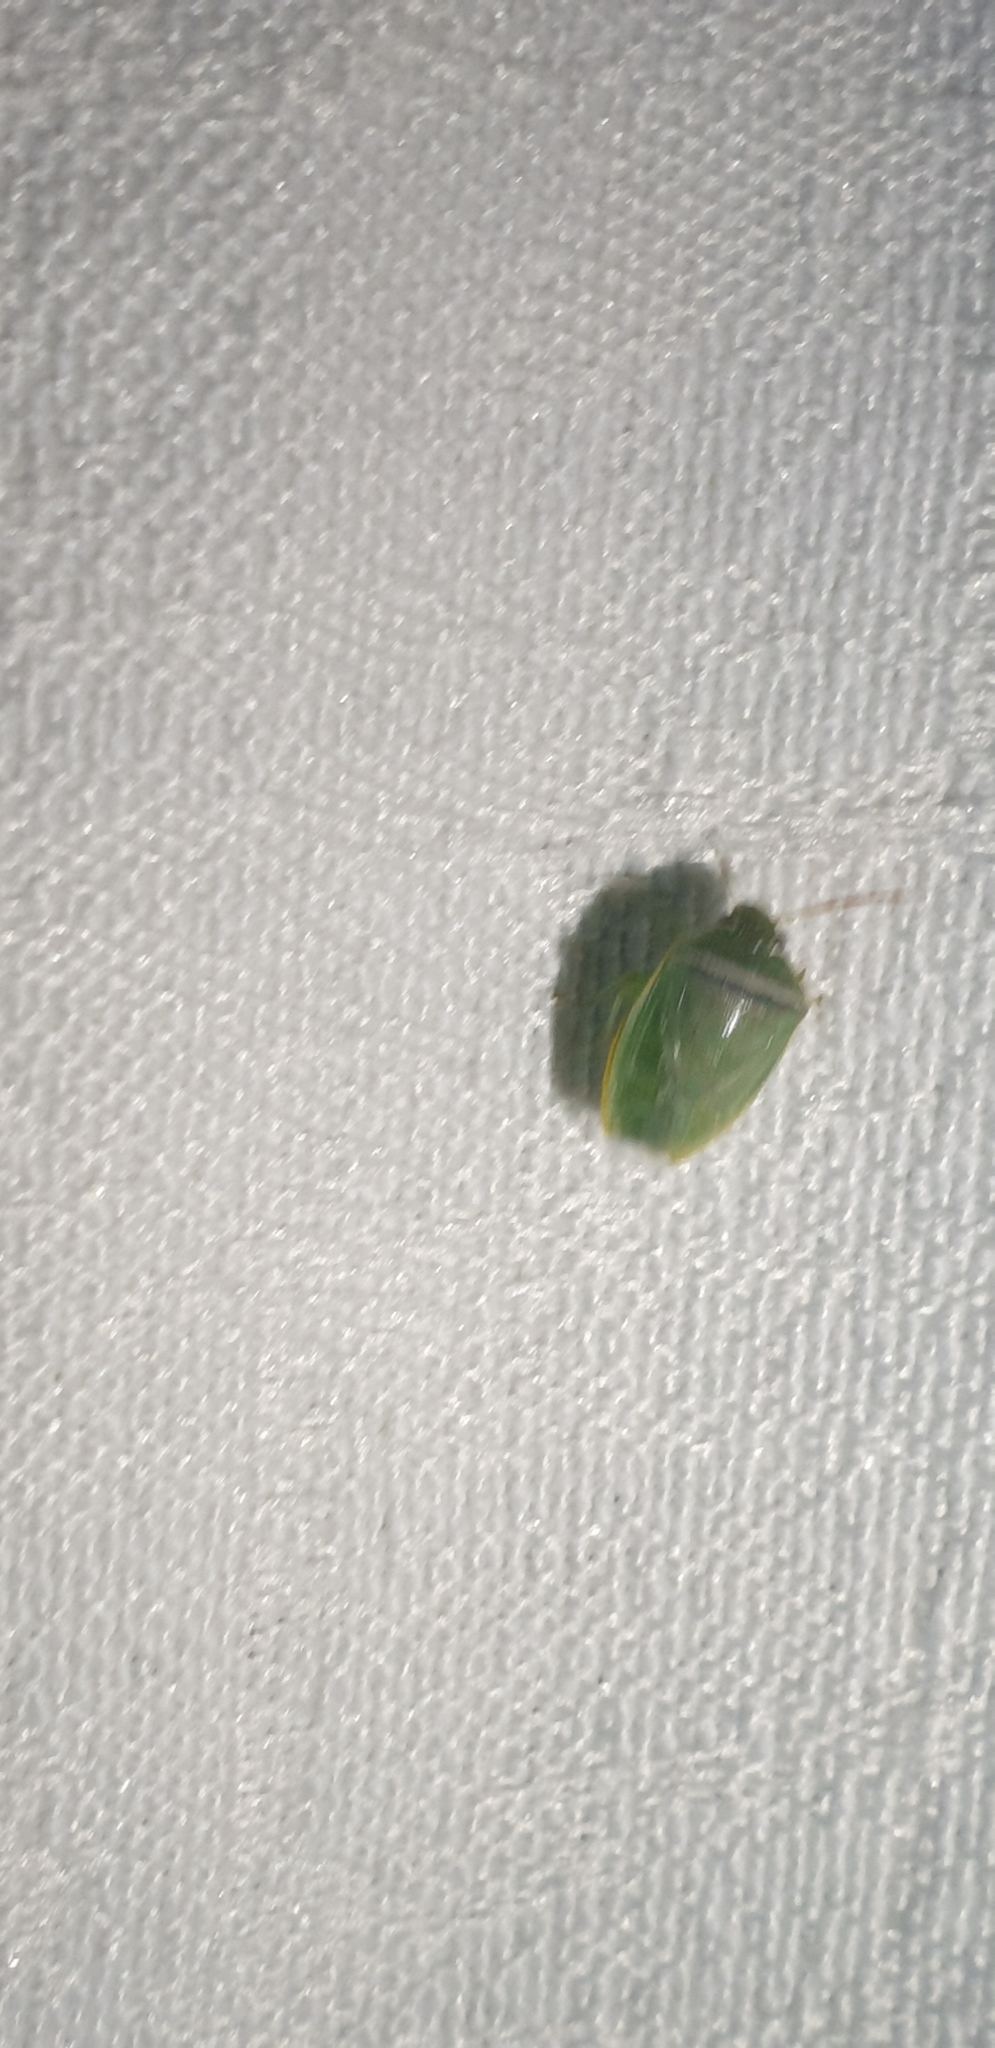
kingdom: Animalia
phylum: Arthropoda
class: Insecta
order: Hemiptera
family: Pentatomidae
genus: Piezodorus
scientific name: Piezodorus oceanicus
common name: Stink bug
